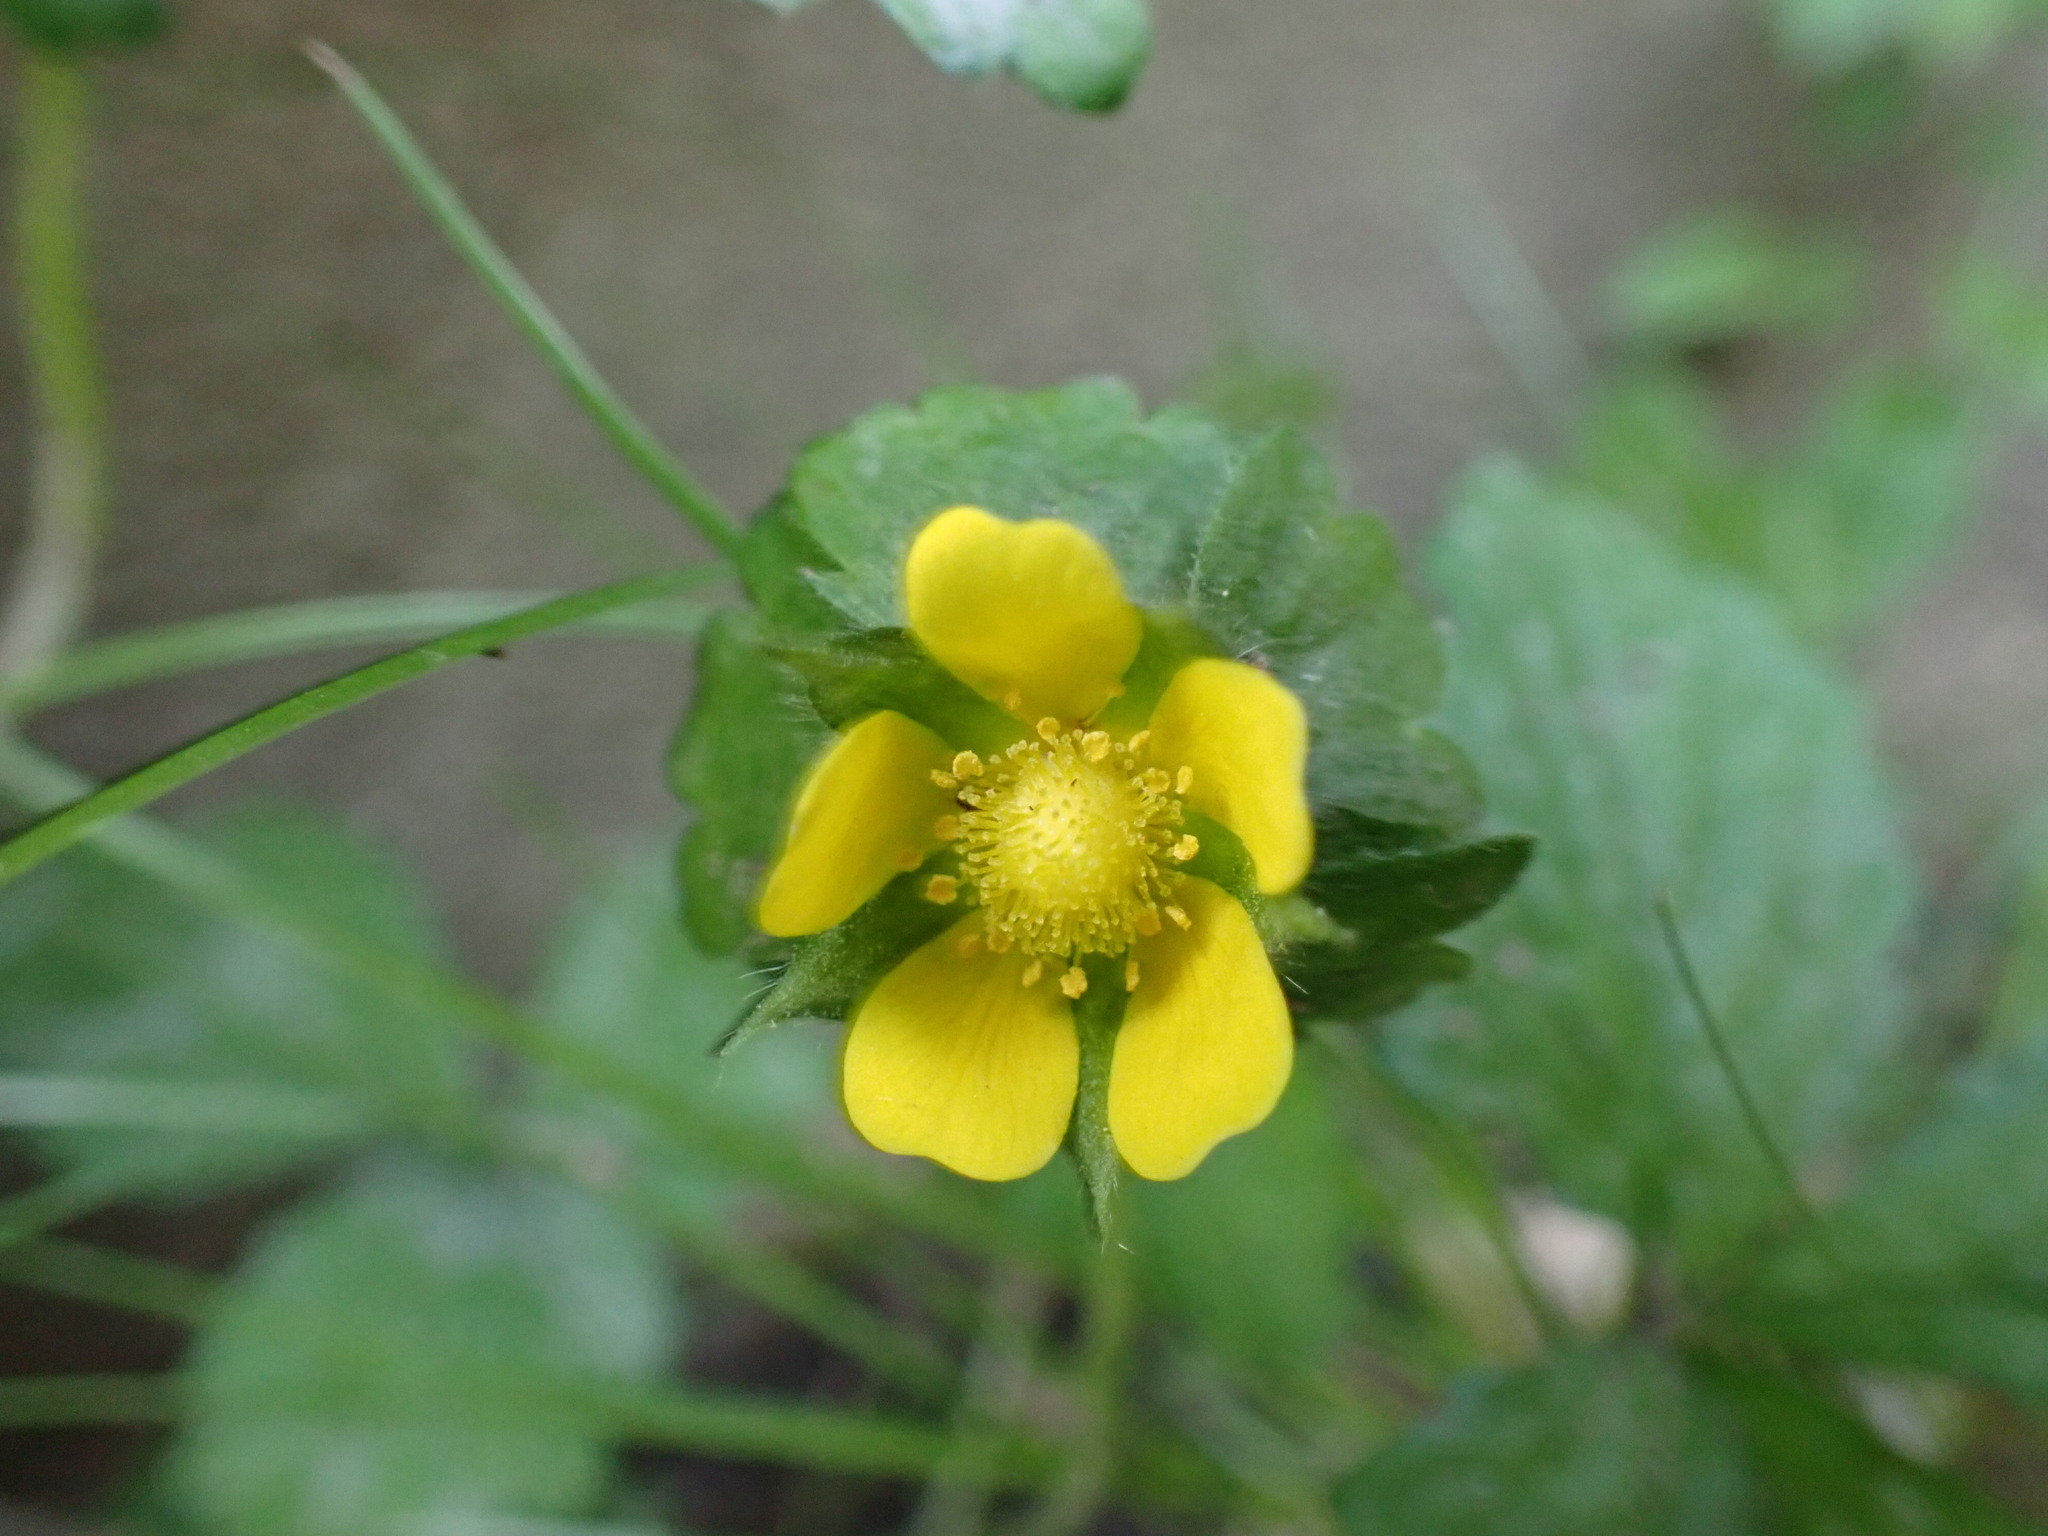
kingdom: Plantae
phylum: Tracheophyta
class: Magnoliopsida
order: Rosales
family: Rosaceae
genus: Potentilla
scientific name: Potentilla indica
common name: Yellow-flowered strawberry
